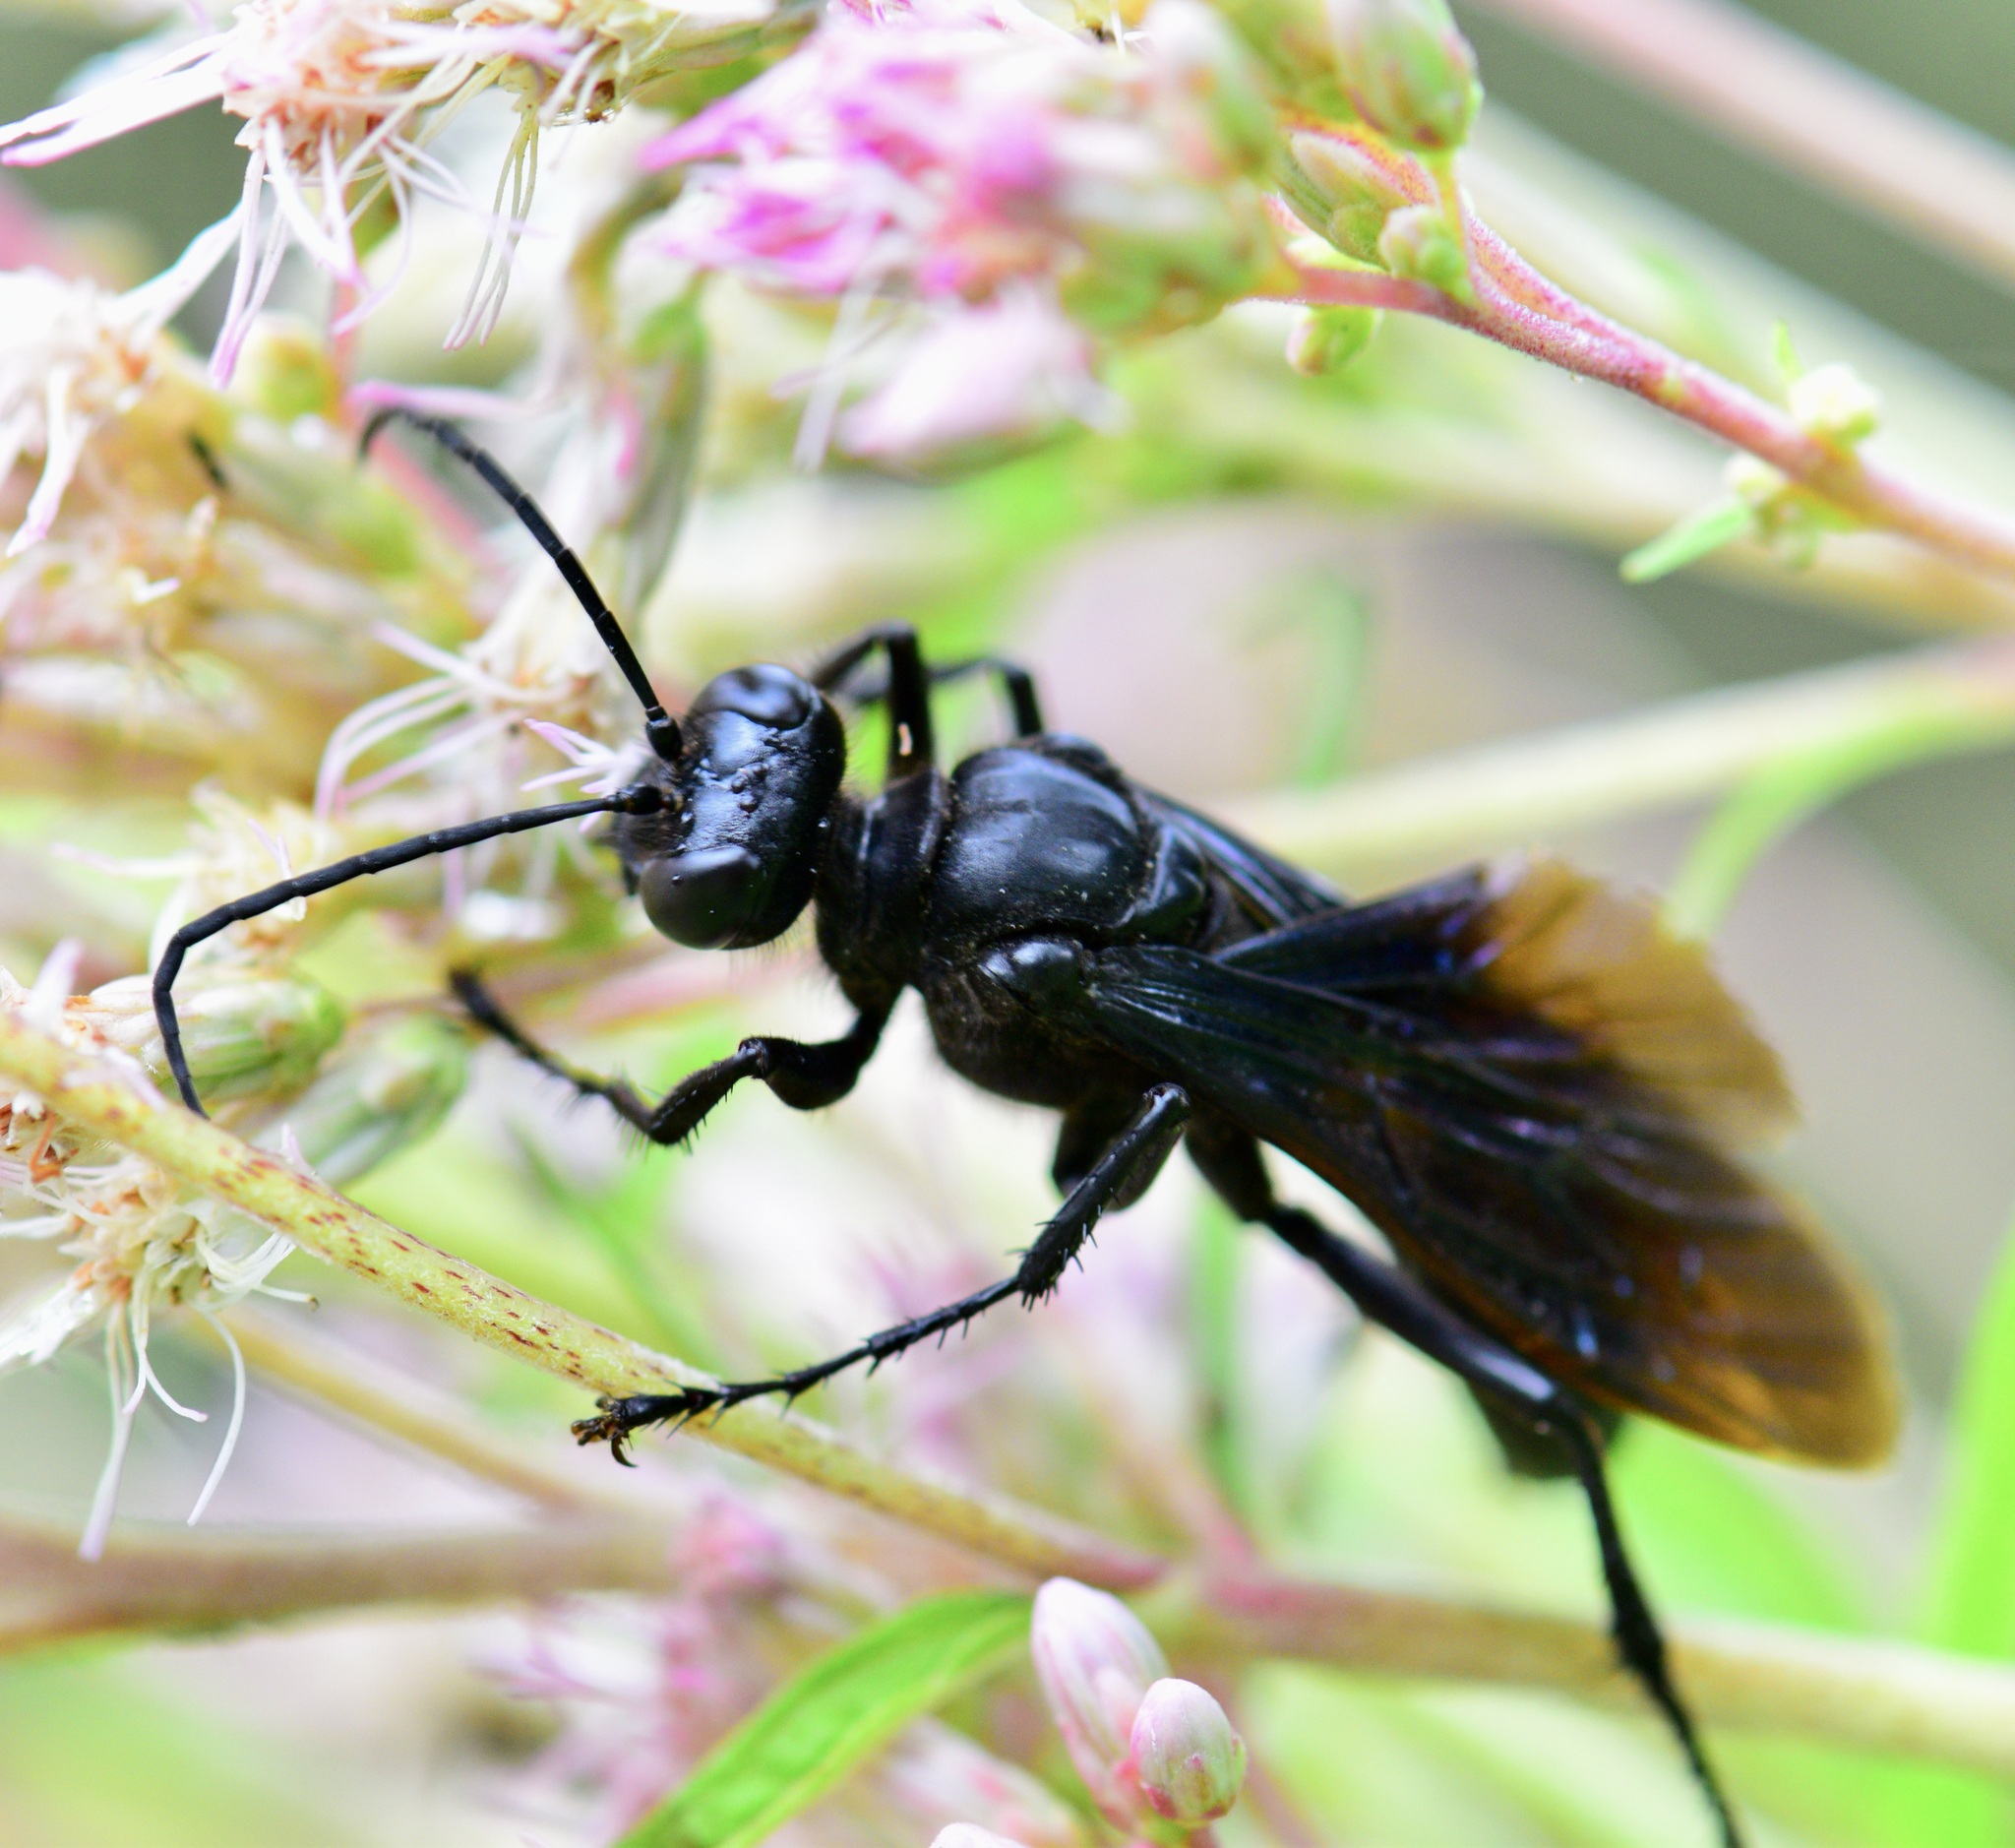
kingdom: Animalia
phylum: Arthropoda
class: Insecta
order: Hymenoptera
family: Sphecidae
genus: Sphex
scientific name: Sphex pensylvanicus
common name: Great black digger wasp
